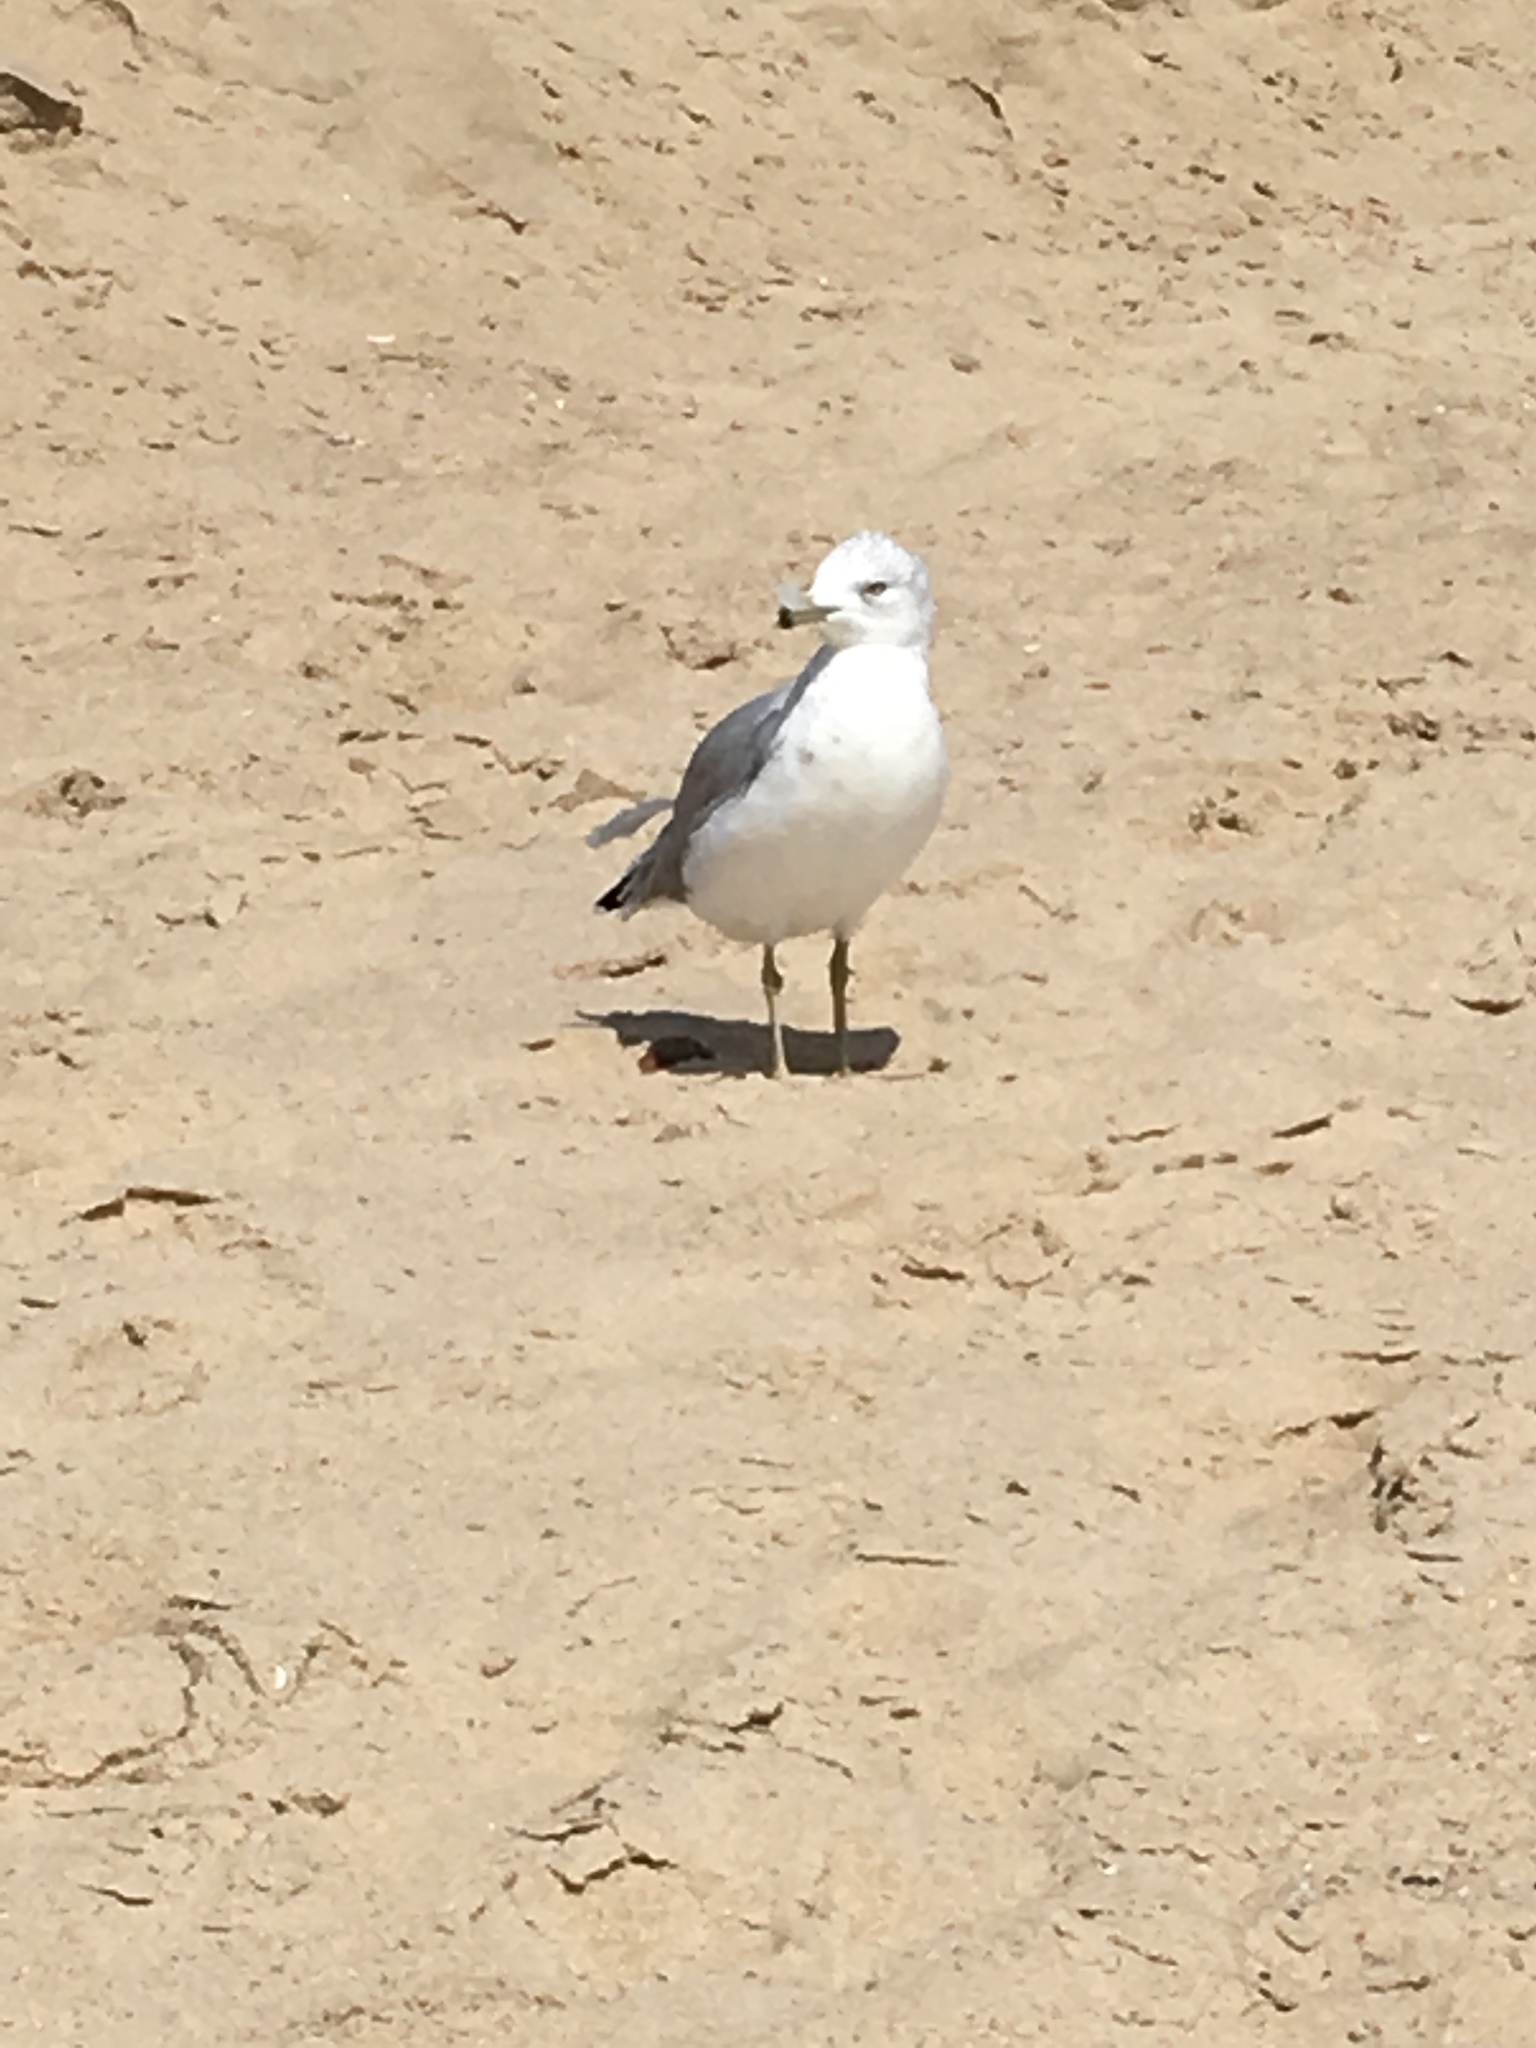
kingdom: Animalia
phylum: Chordata
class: Aves
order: Charadriiformes
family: Laridae
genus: Larus
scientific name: Larus delawarensis
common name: Ring-billed gull
